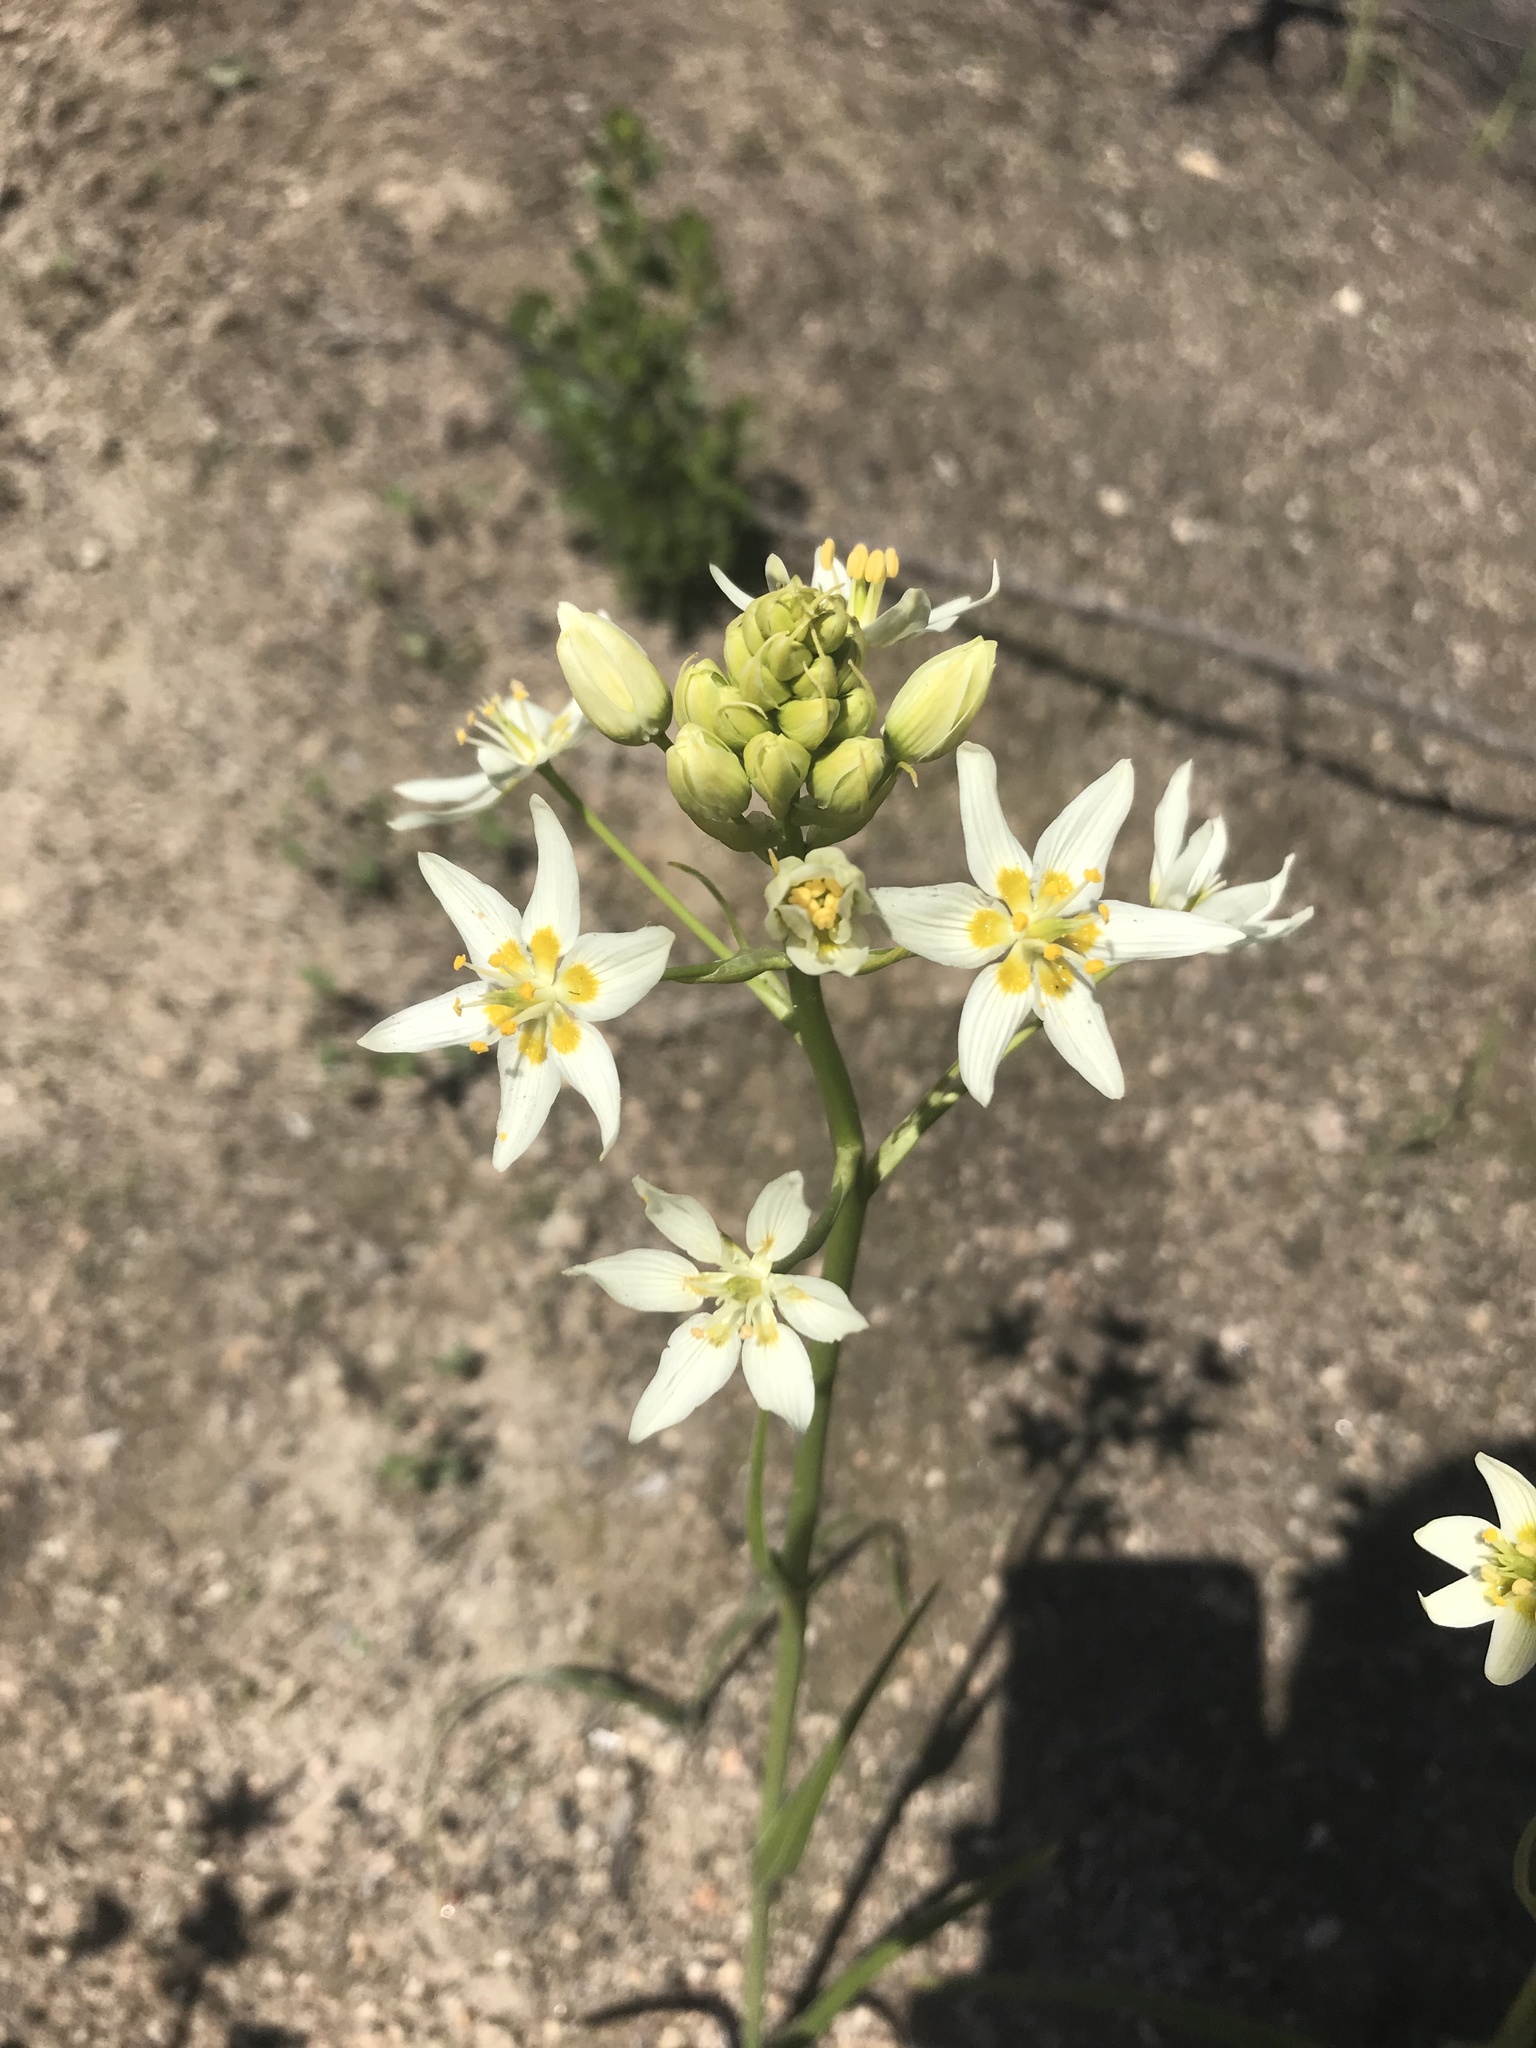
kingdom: Plantae
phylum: Tracheophyta
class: Liliopsida
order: Liliales
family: Melanthiaceae
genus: Toxicoscordion
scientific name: Toxicoscordion fremontii
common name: Fremont's death camas
